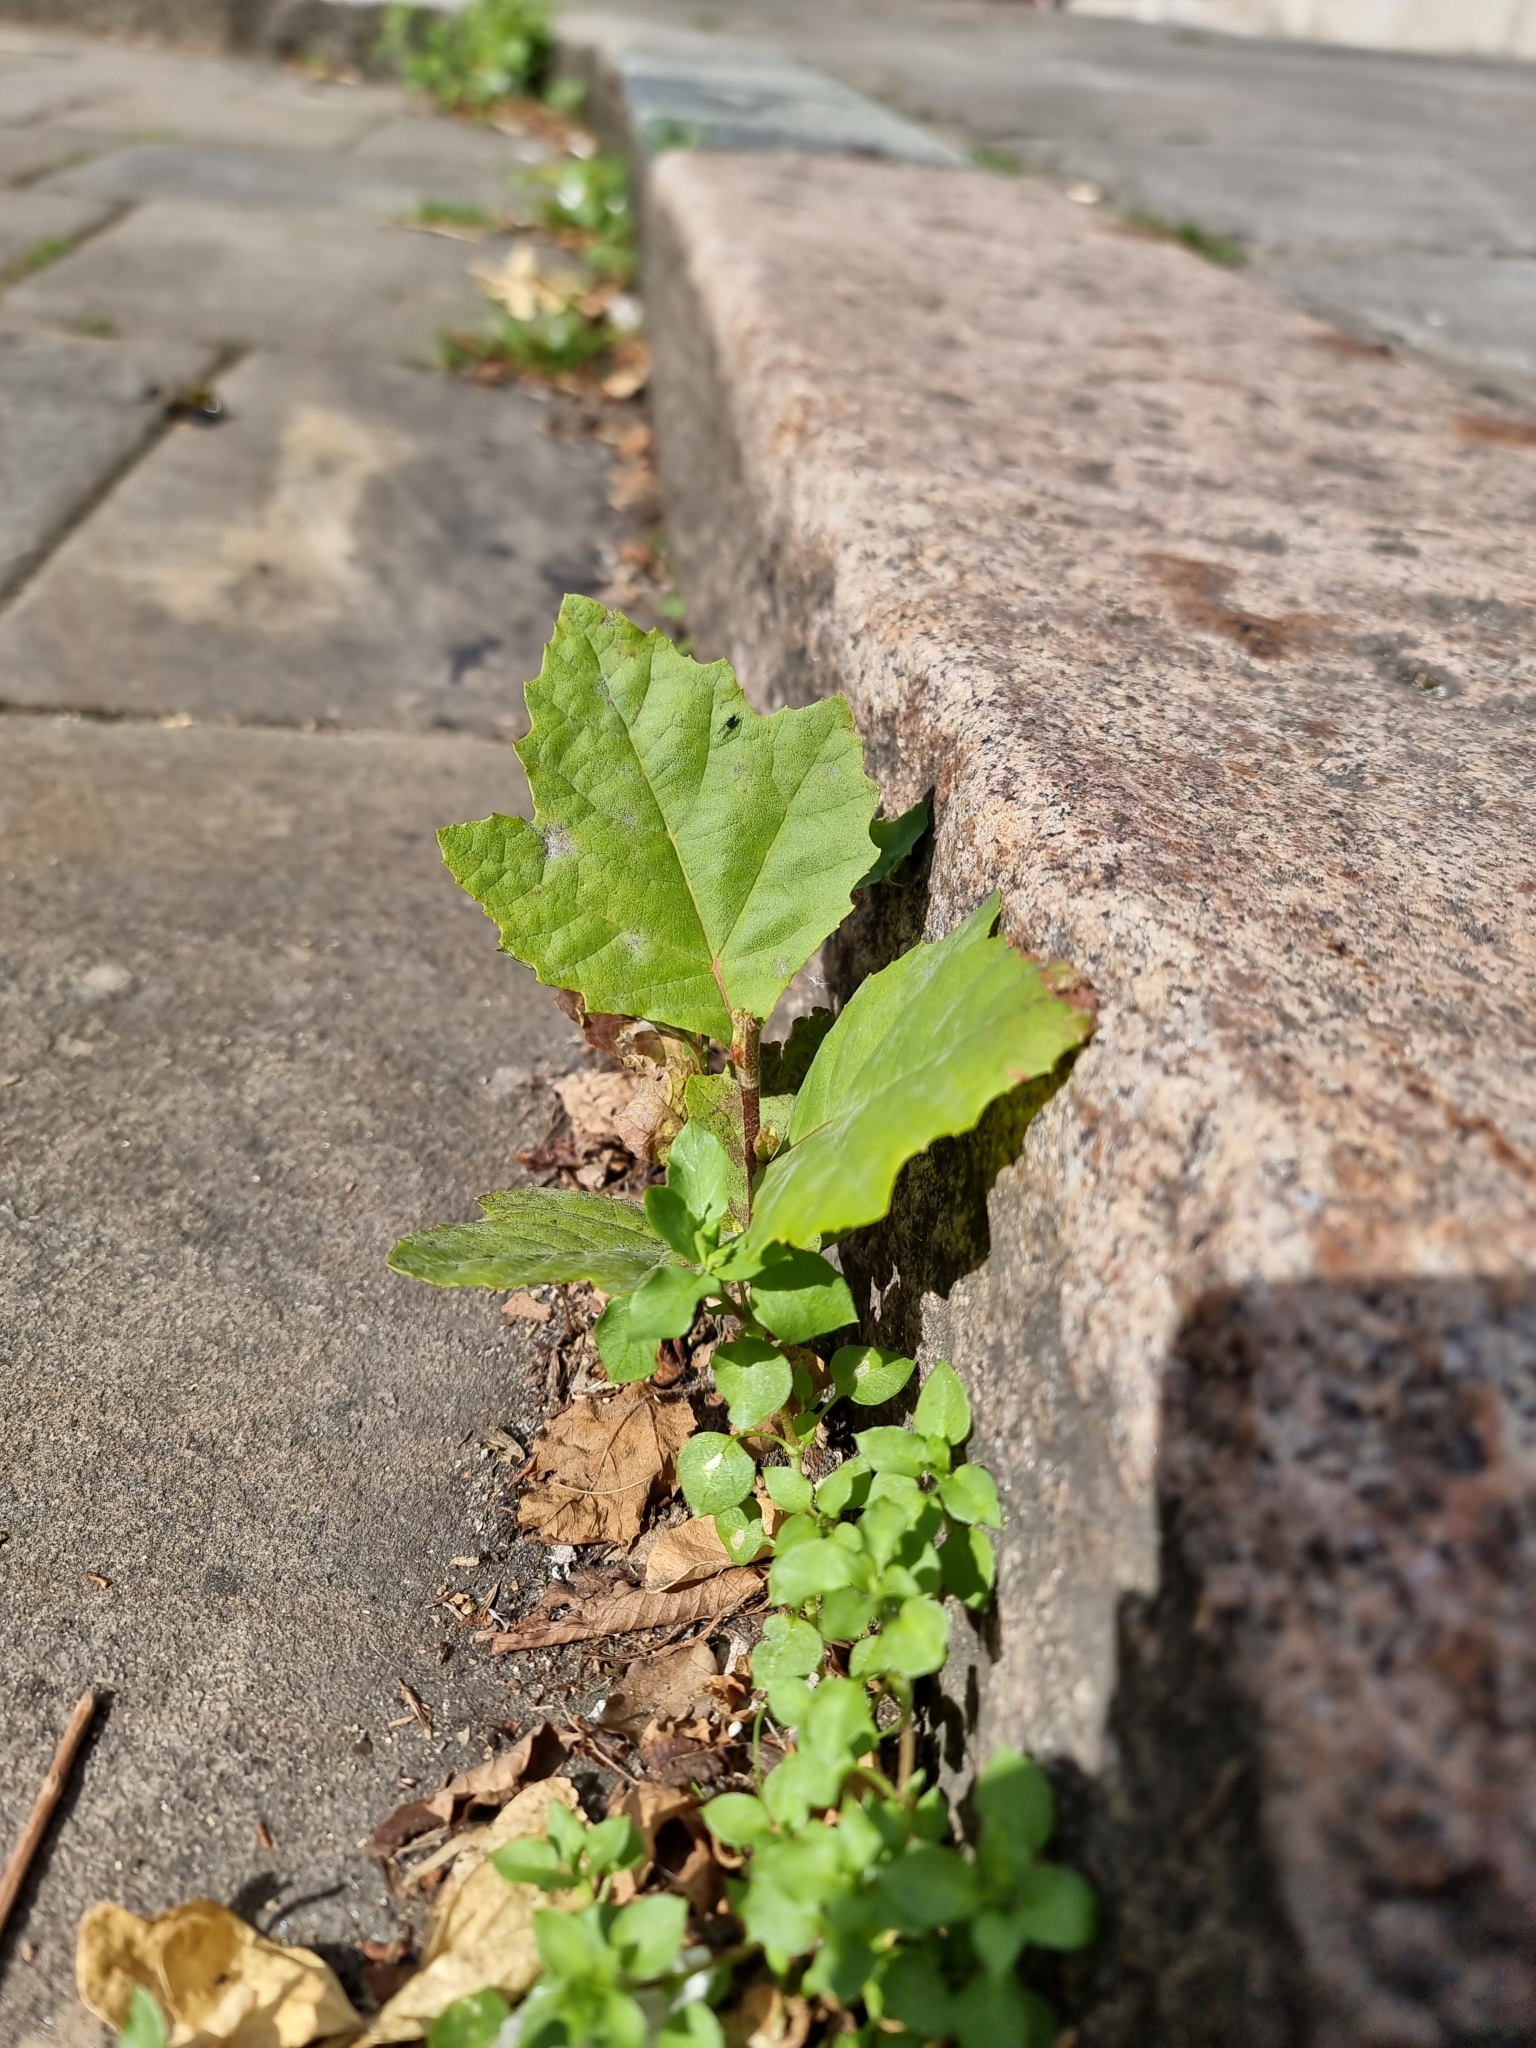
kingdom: Plantae
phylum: Tracheophyta
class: Magnoliopsida
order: Proteales
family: Platanaceae
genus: Platanus
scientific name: Platanus hispanica
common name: London plane
